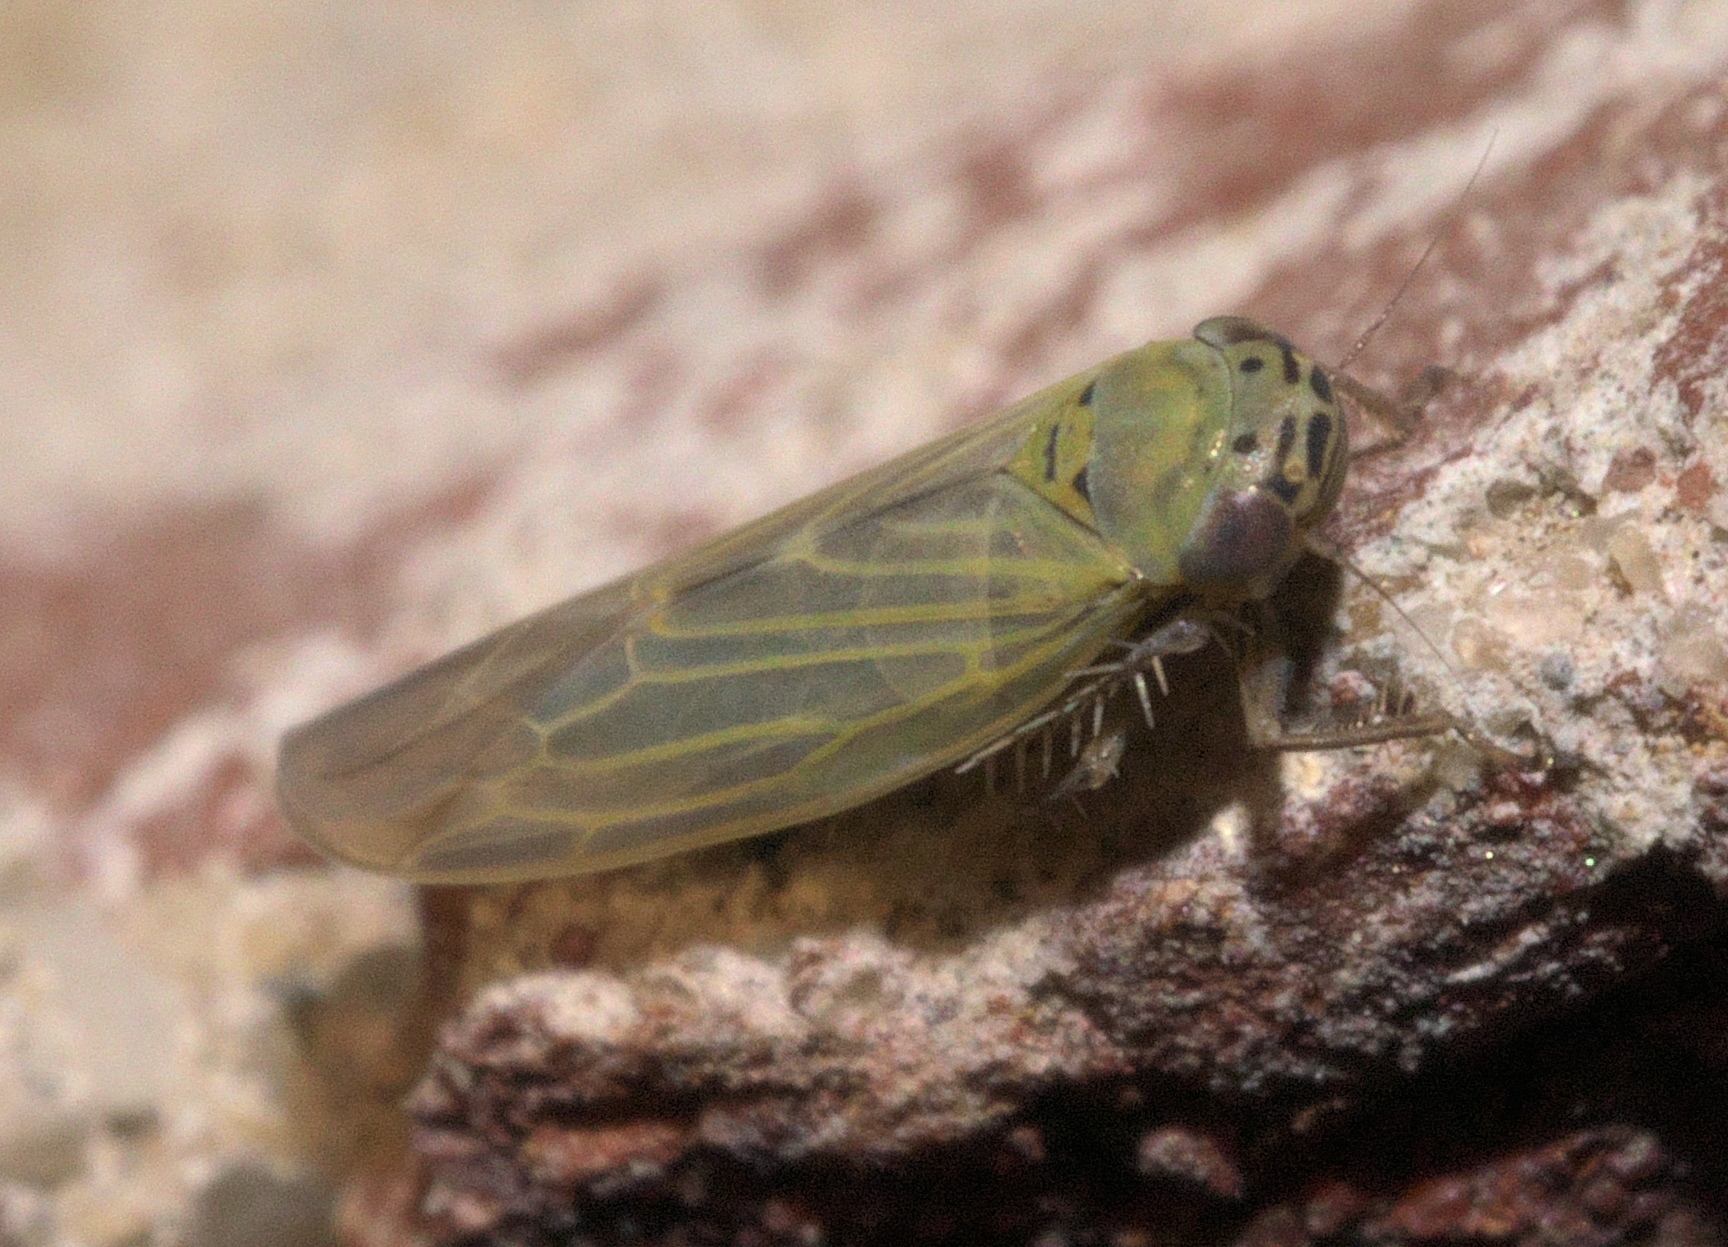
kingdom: Animalia
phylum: Arthropoda
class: Insecta
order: Hemiptera
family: Cicadellidae
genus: Macrosteles
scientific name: Macrosteles quadrilineatus
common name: Aster leafhopper
